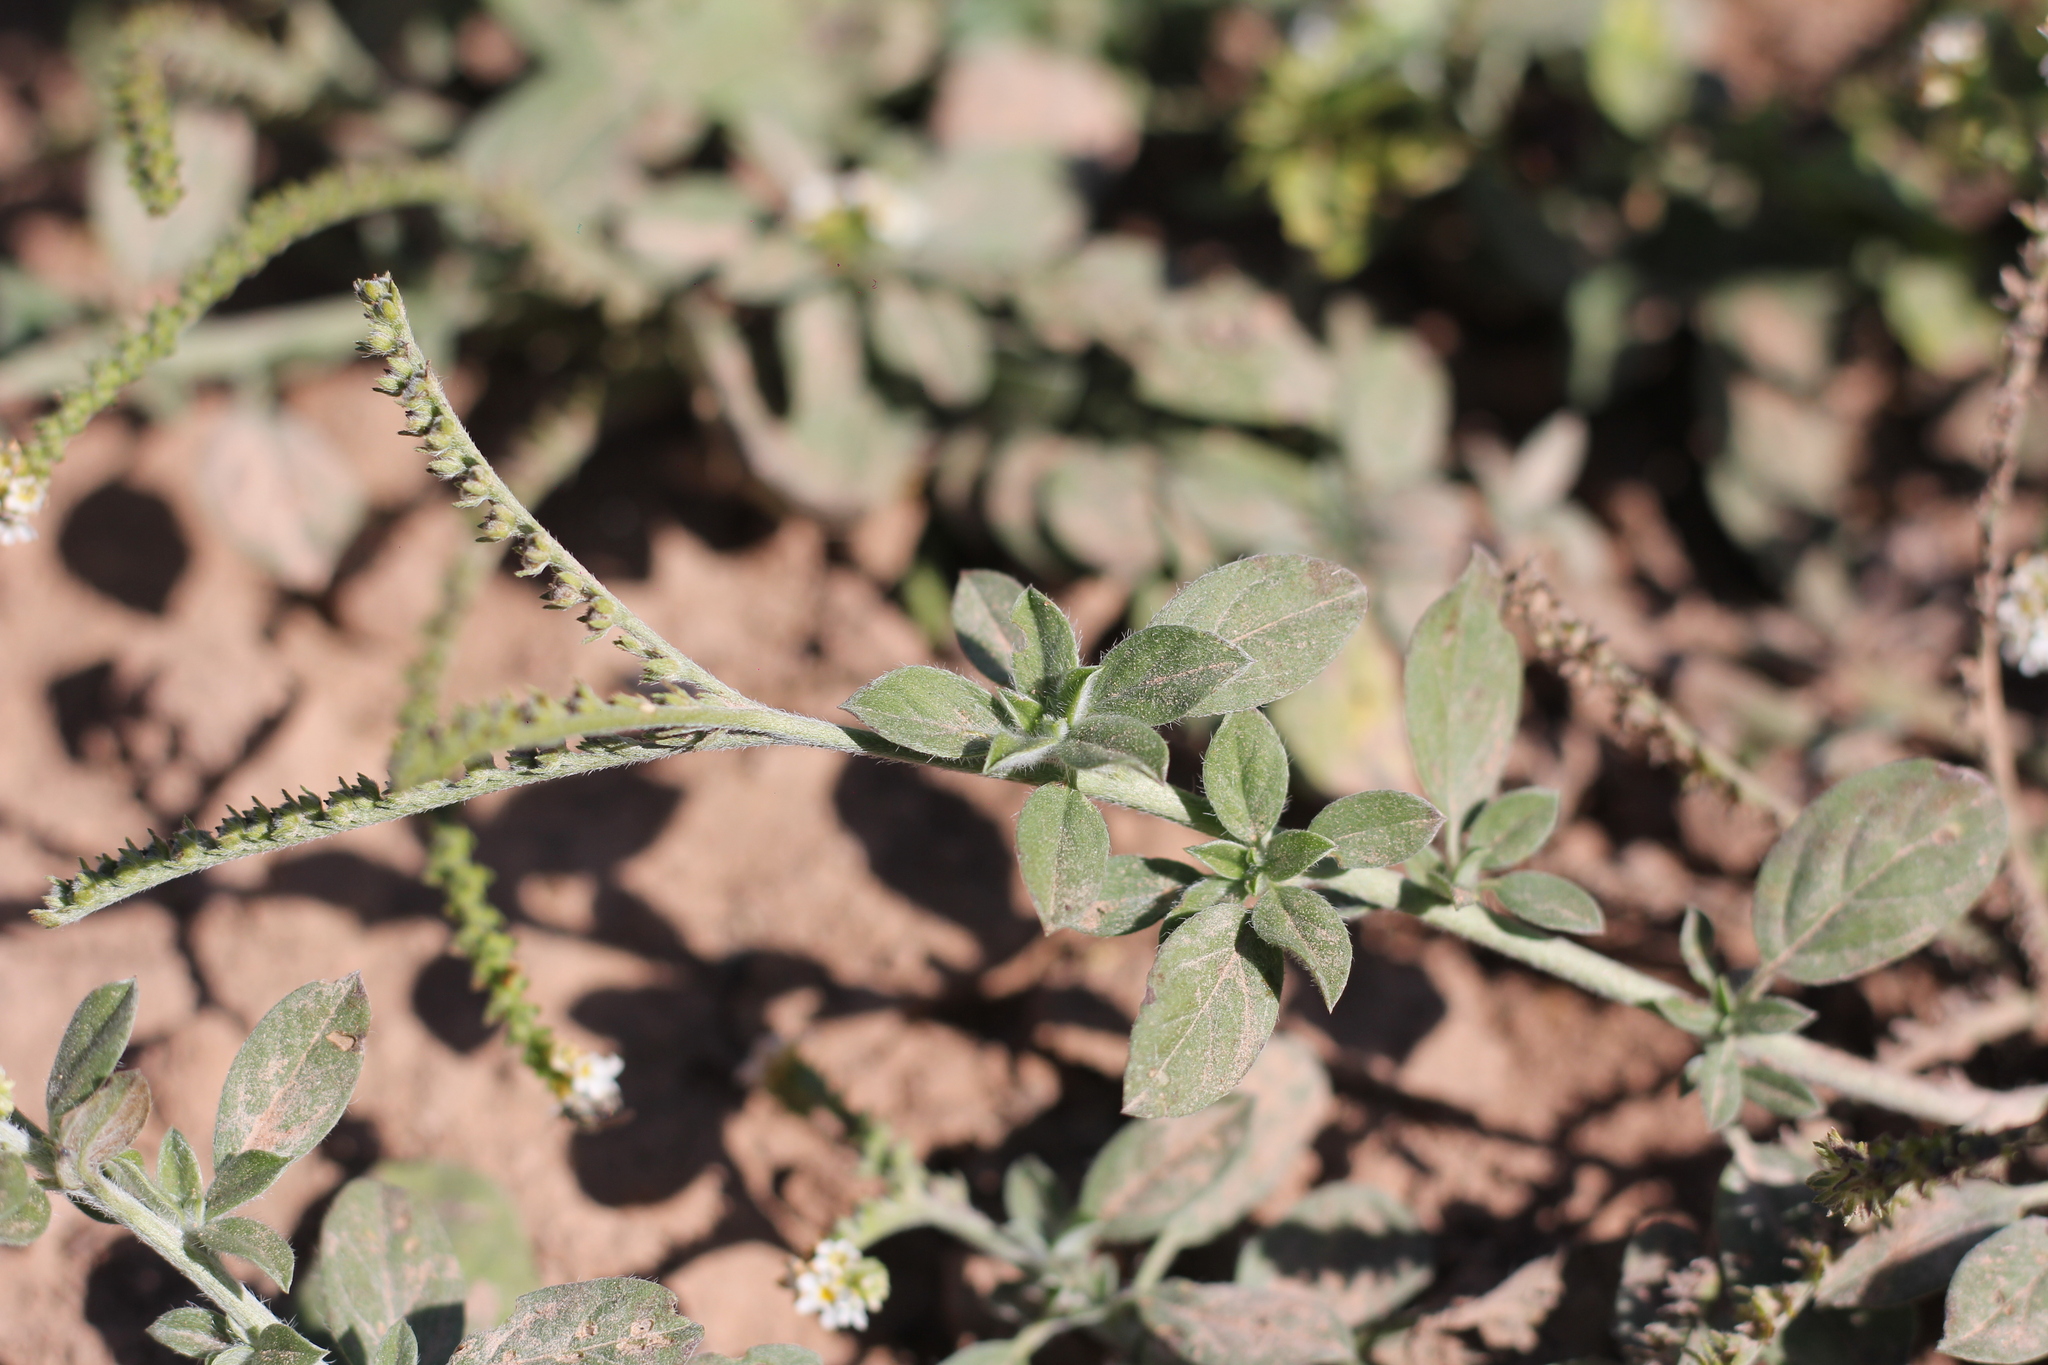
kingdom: Plantae
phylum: Tracheophyta
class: Magnoliopsida
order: Boraginales
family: Heliotropiaceae
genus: Euploca
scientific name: Euploca procumbens
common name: Fourspike heliotrope
